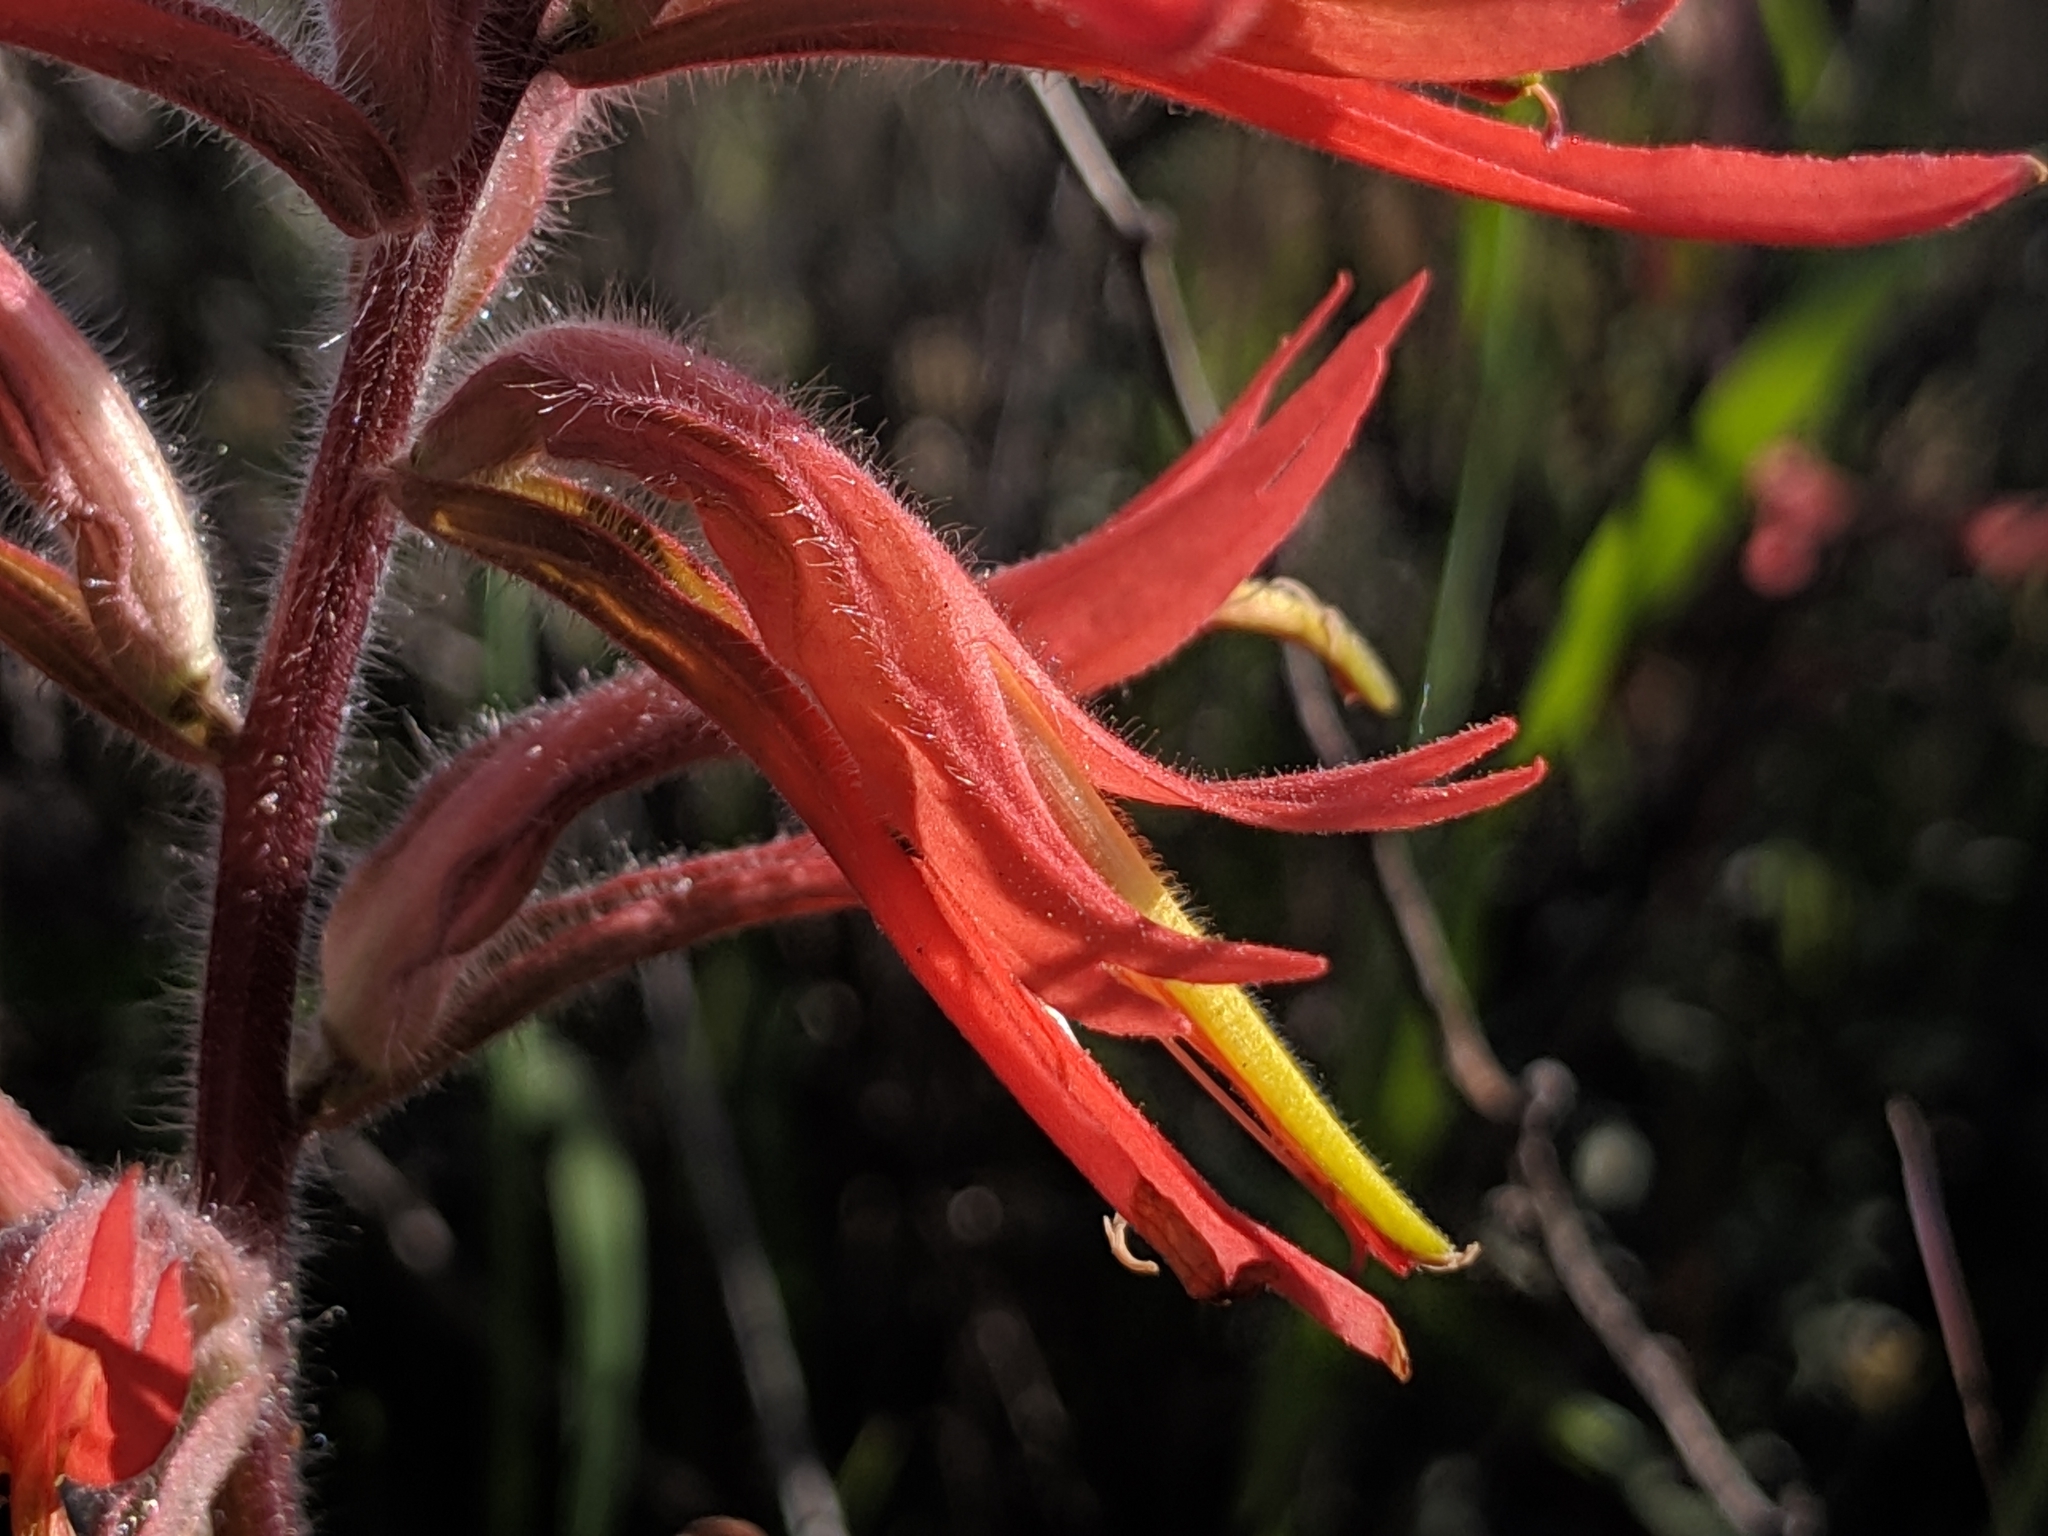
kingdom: Plantae
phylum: Tracheophyta
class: Magnoliopsida
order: Lamiales
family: Orobanchaceae
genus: Castilleja
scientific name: Castilleja subinclusa
